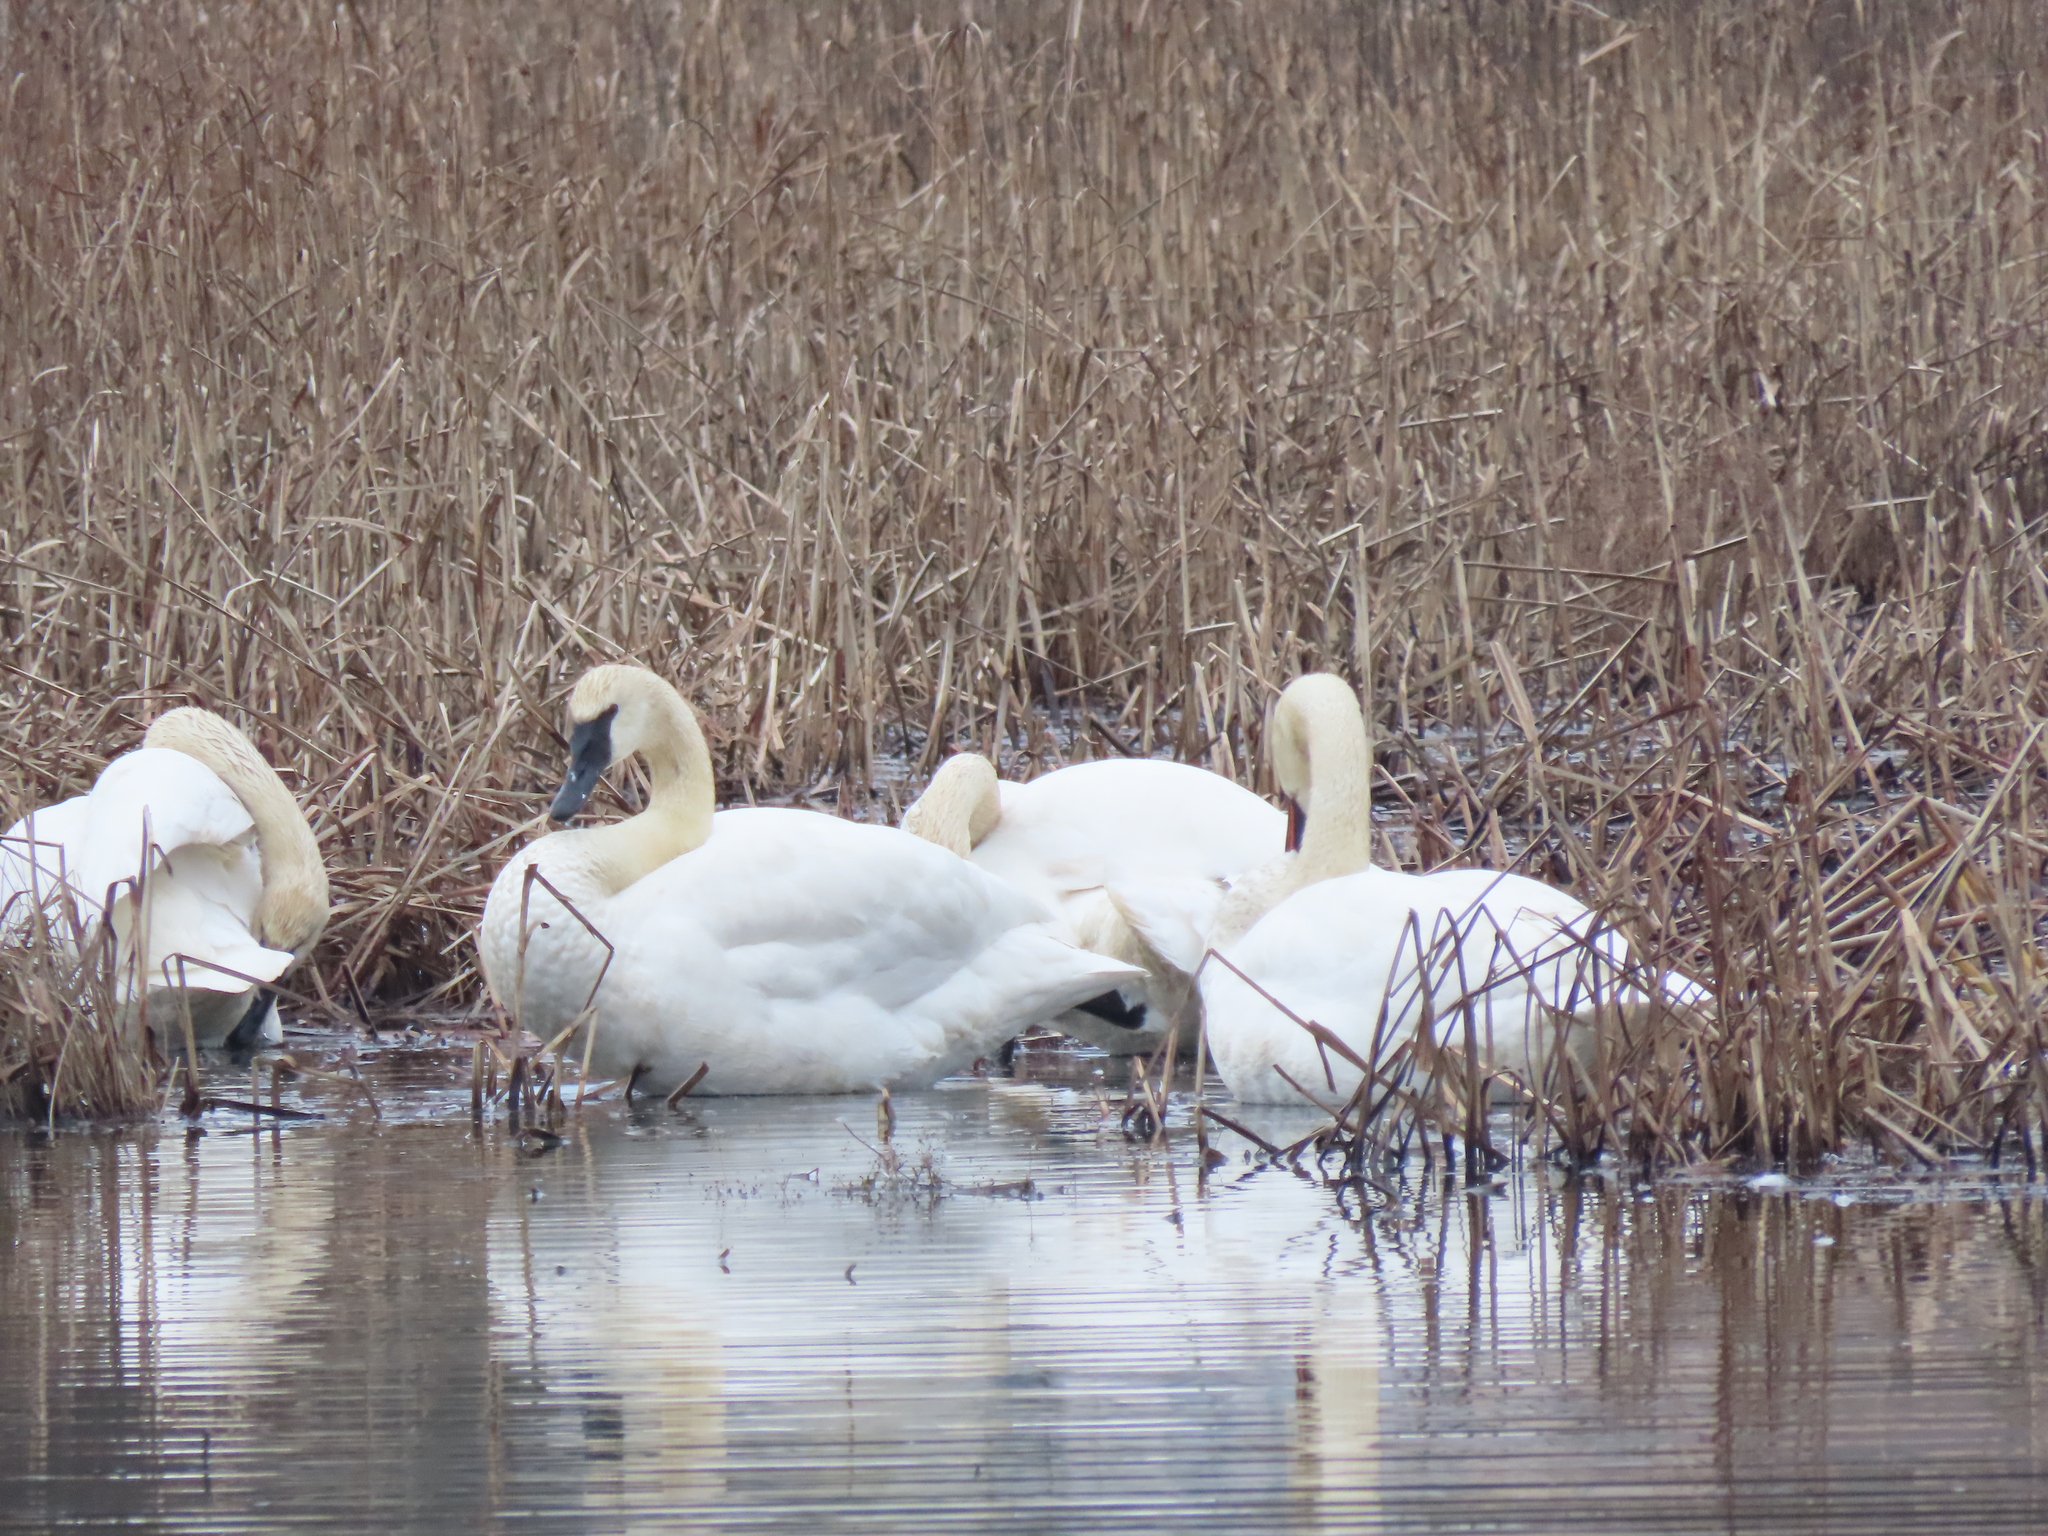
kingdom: Animalia
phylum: Chordata
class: Aves
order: Anseriformes
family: Anatidae
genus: Cygnus
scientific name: Cygnus buccinator
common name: Trumpeter swan
